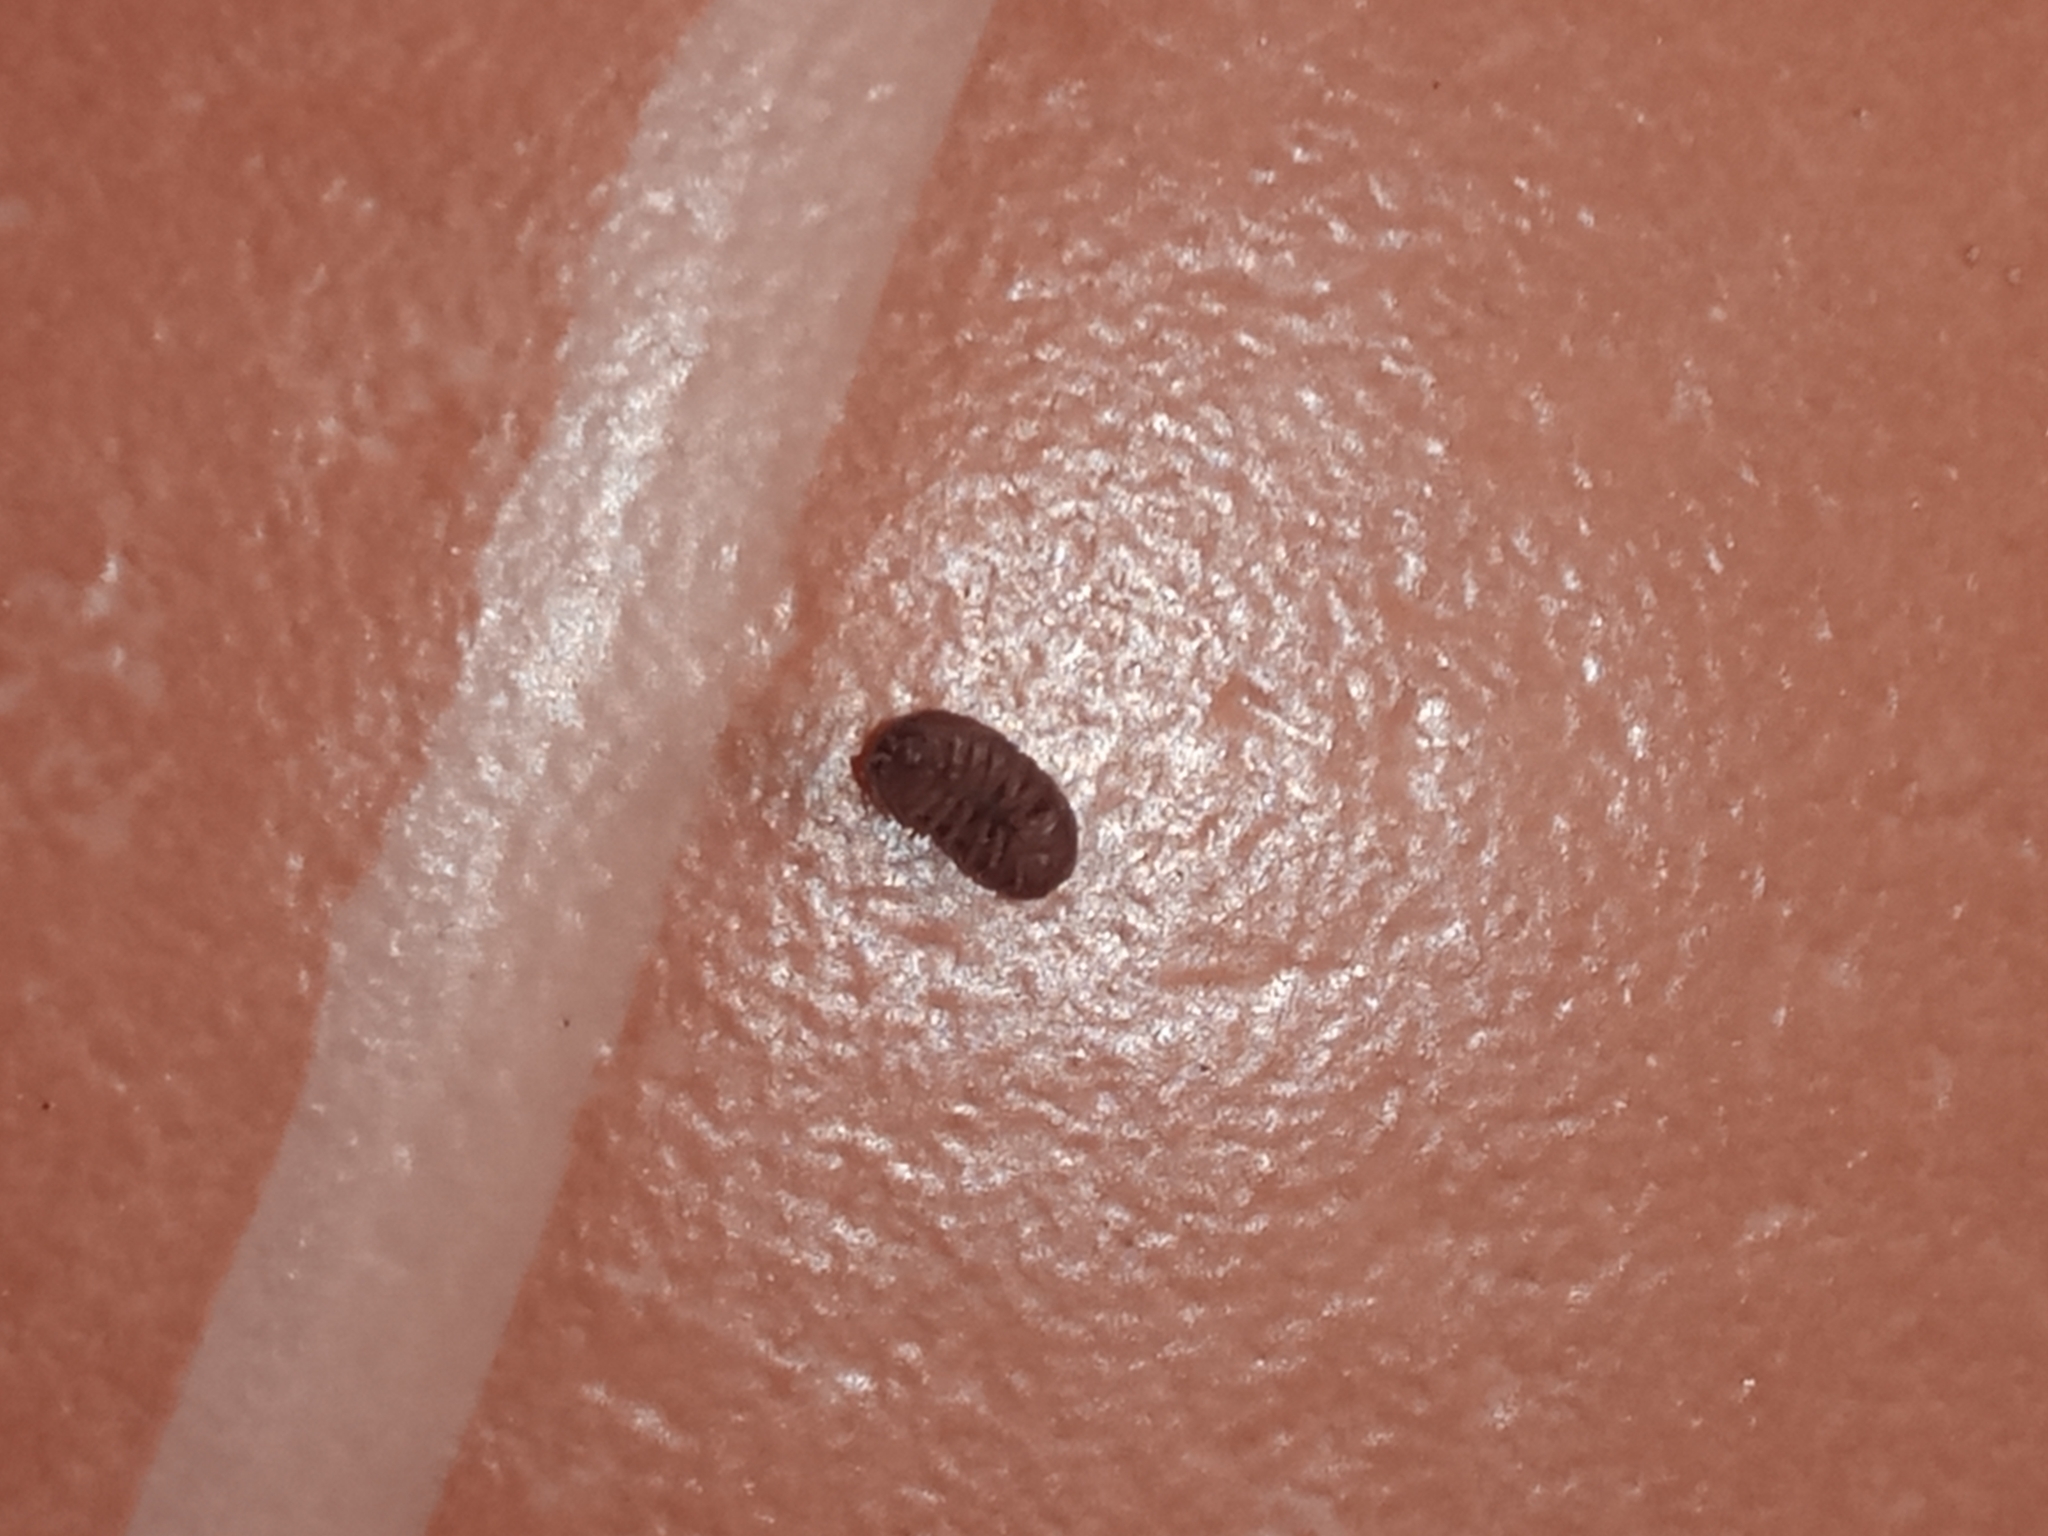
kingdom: Animalia
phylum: Arthropoda
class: Malacostraca
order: Isopoda
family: Armadillidiidae
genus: Armadillidium
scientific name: Armadillidium vulgare
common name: Common pill woodlouse
